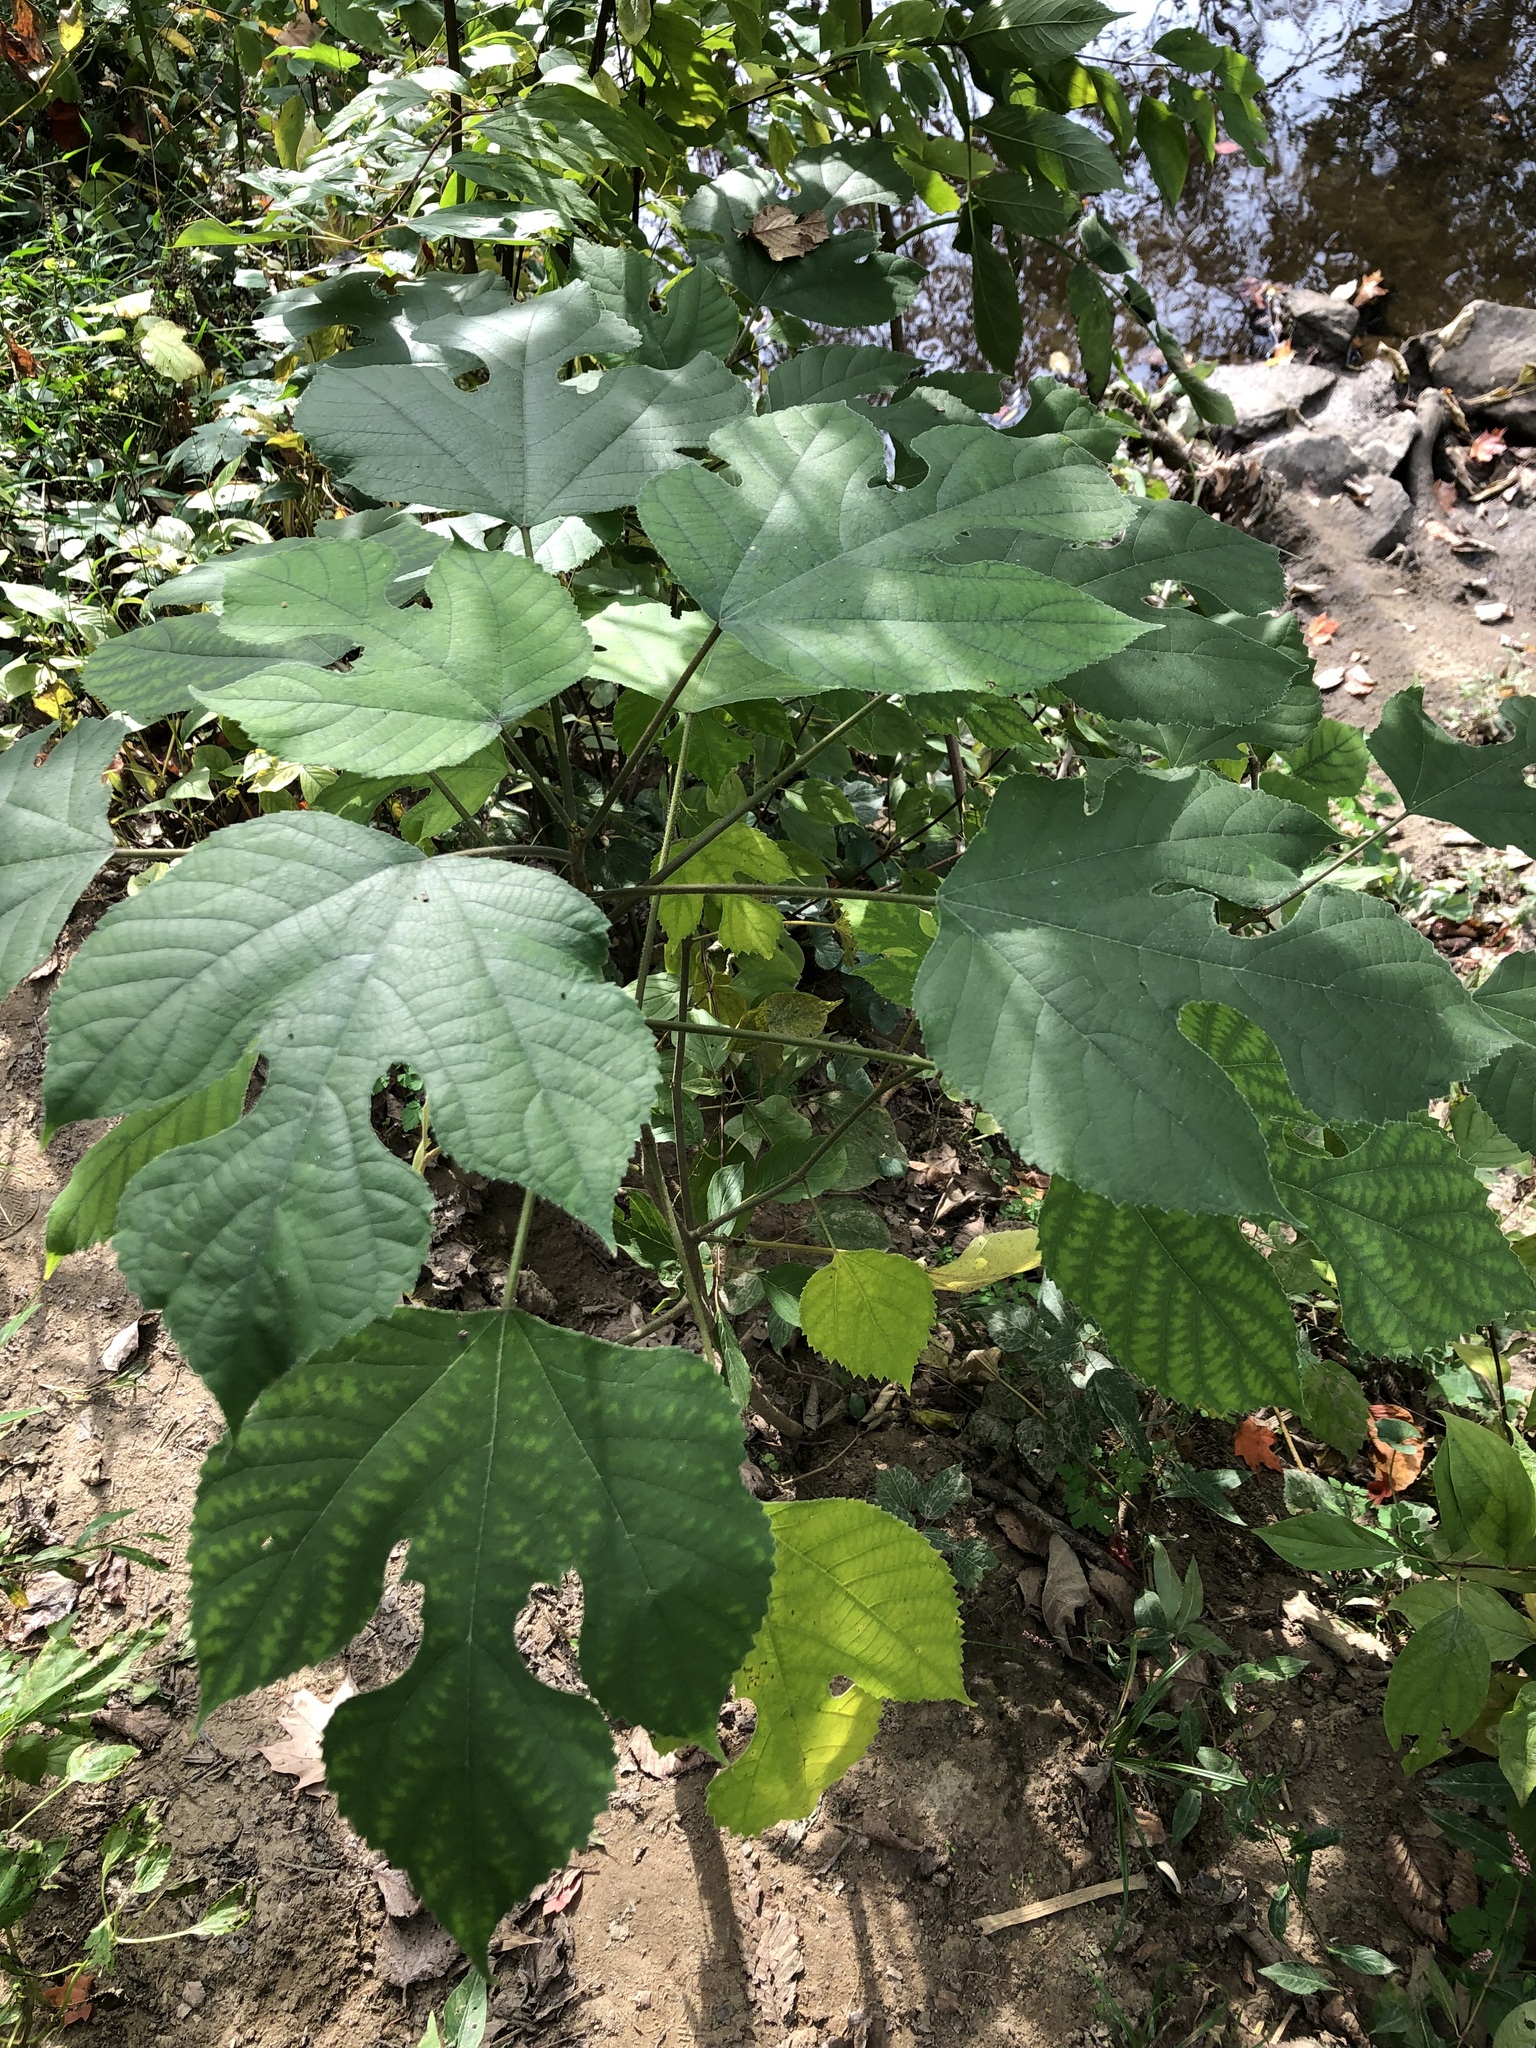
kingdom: Plantae
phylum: Tracheophyta
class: Magnoliopsida
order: Rosales
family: Moraceae
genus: Broussonetia
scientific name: Broussonetia papyrifera
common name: Paper mulberry
